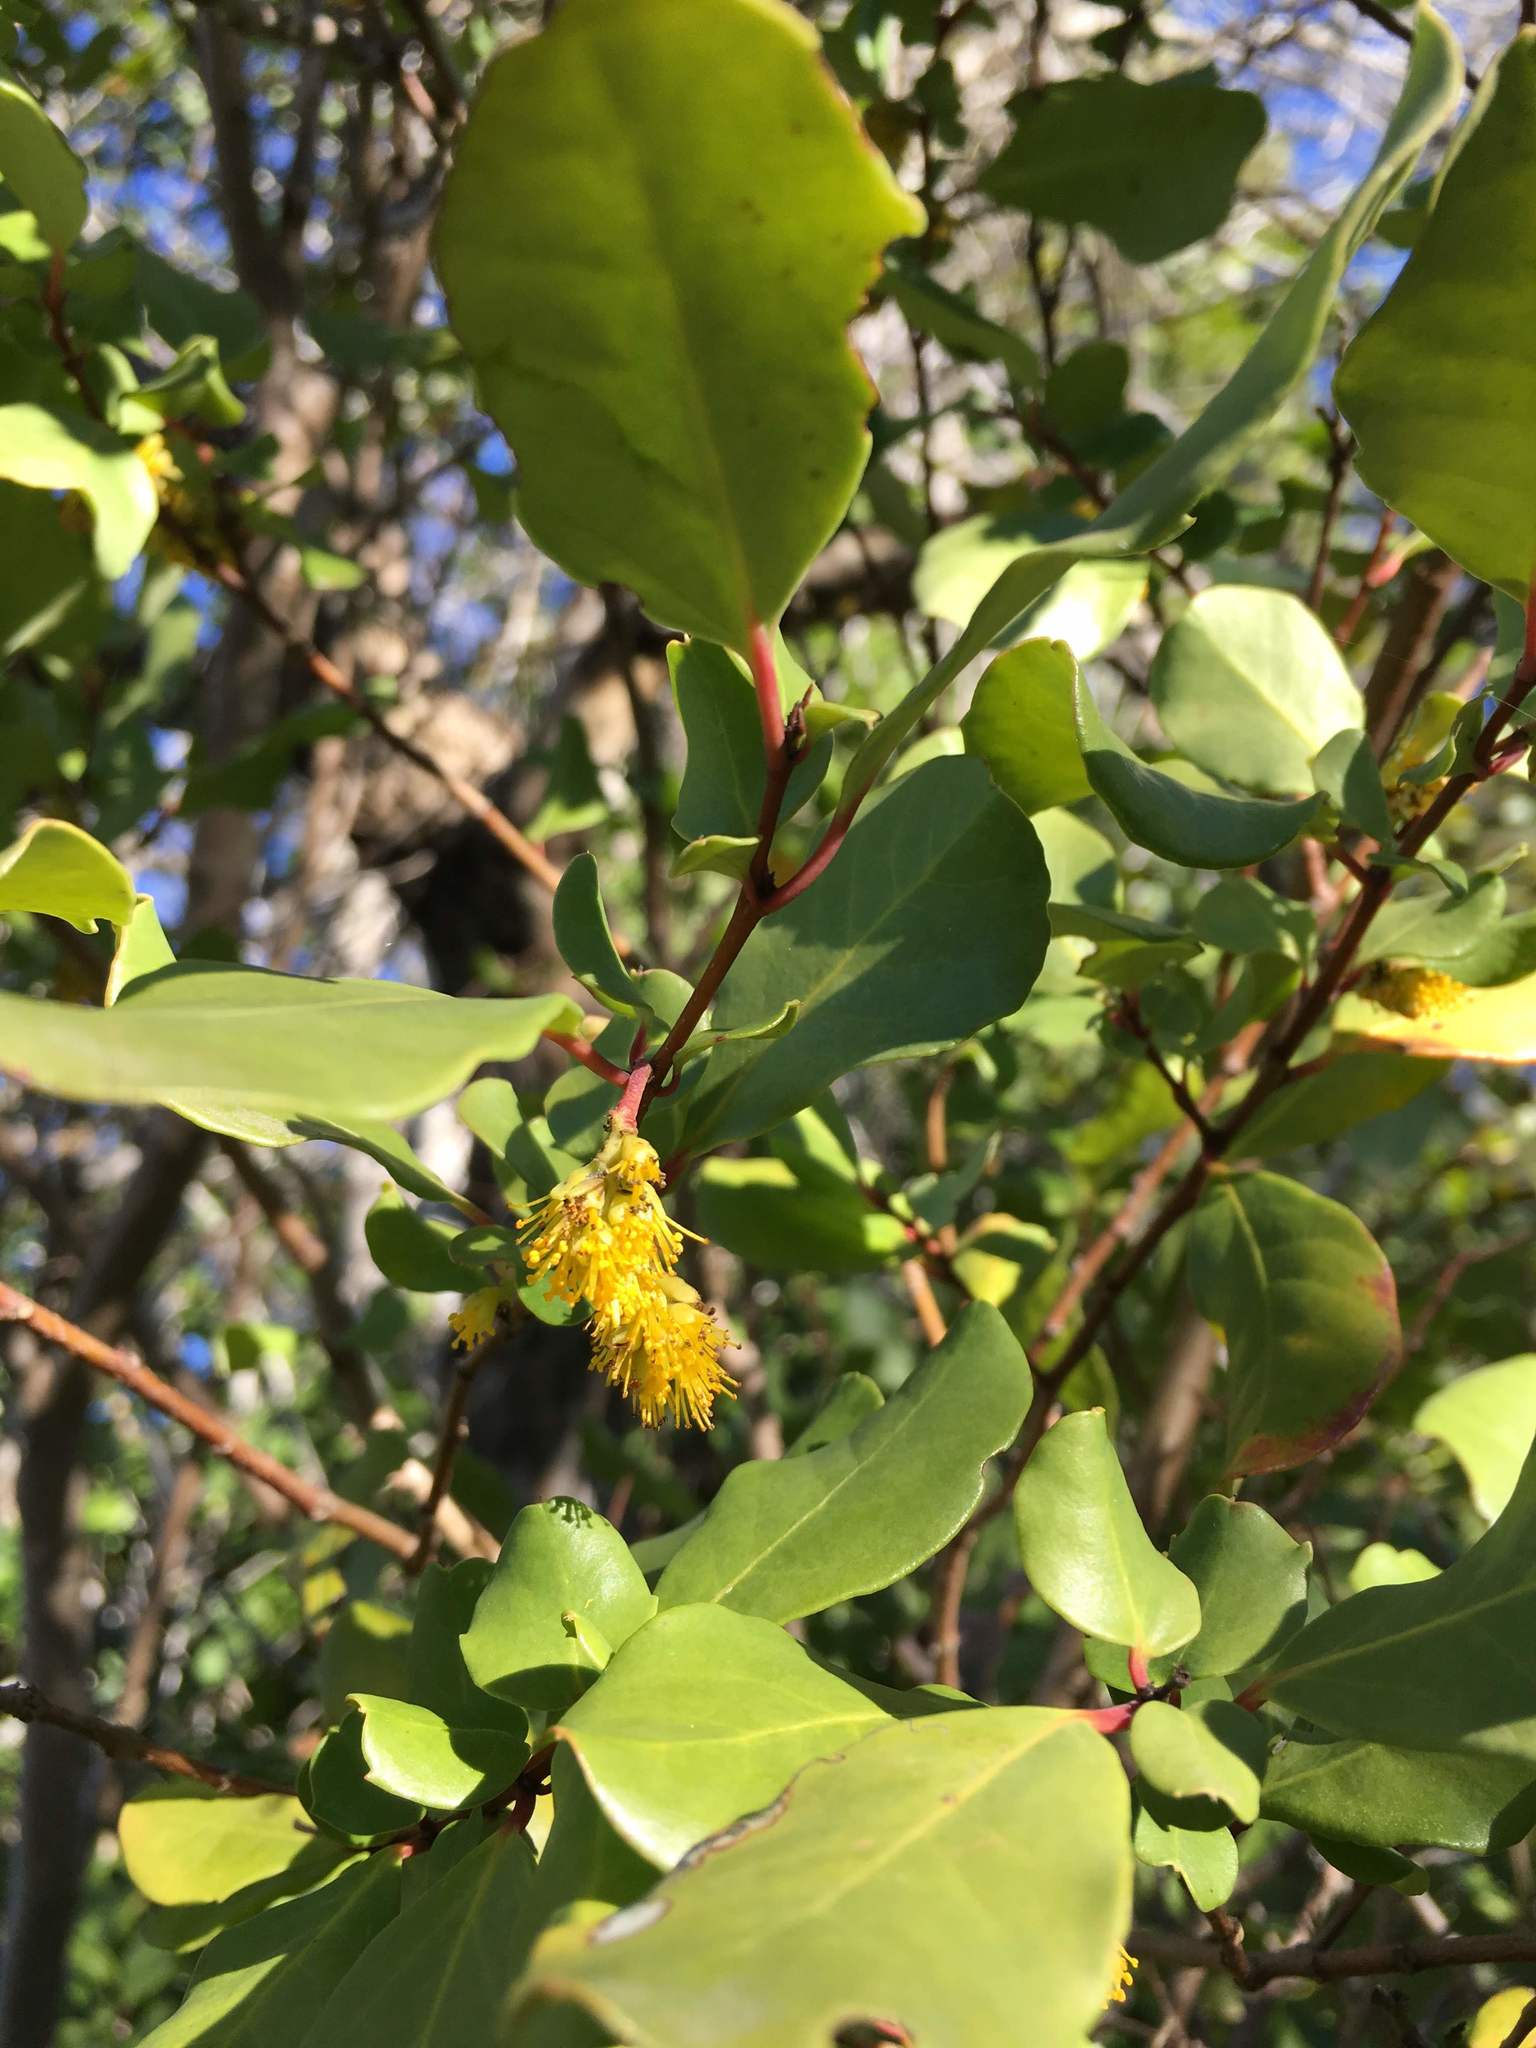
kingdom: Plantae
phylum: Tracheophyta
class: Magnoliopsida
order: Malpighiales
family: Salicaceae
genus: Azara
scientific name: Azara integrifolia
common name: Goldspire
